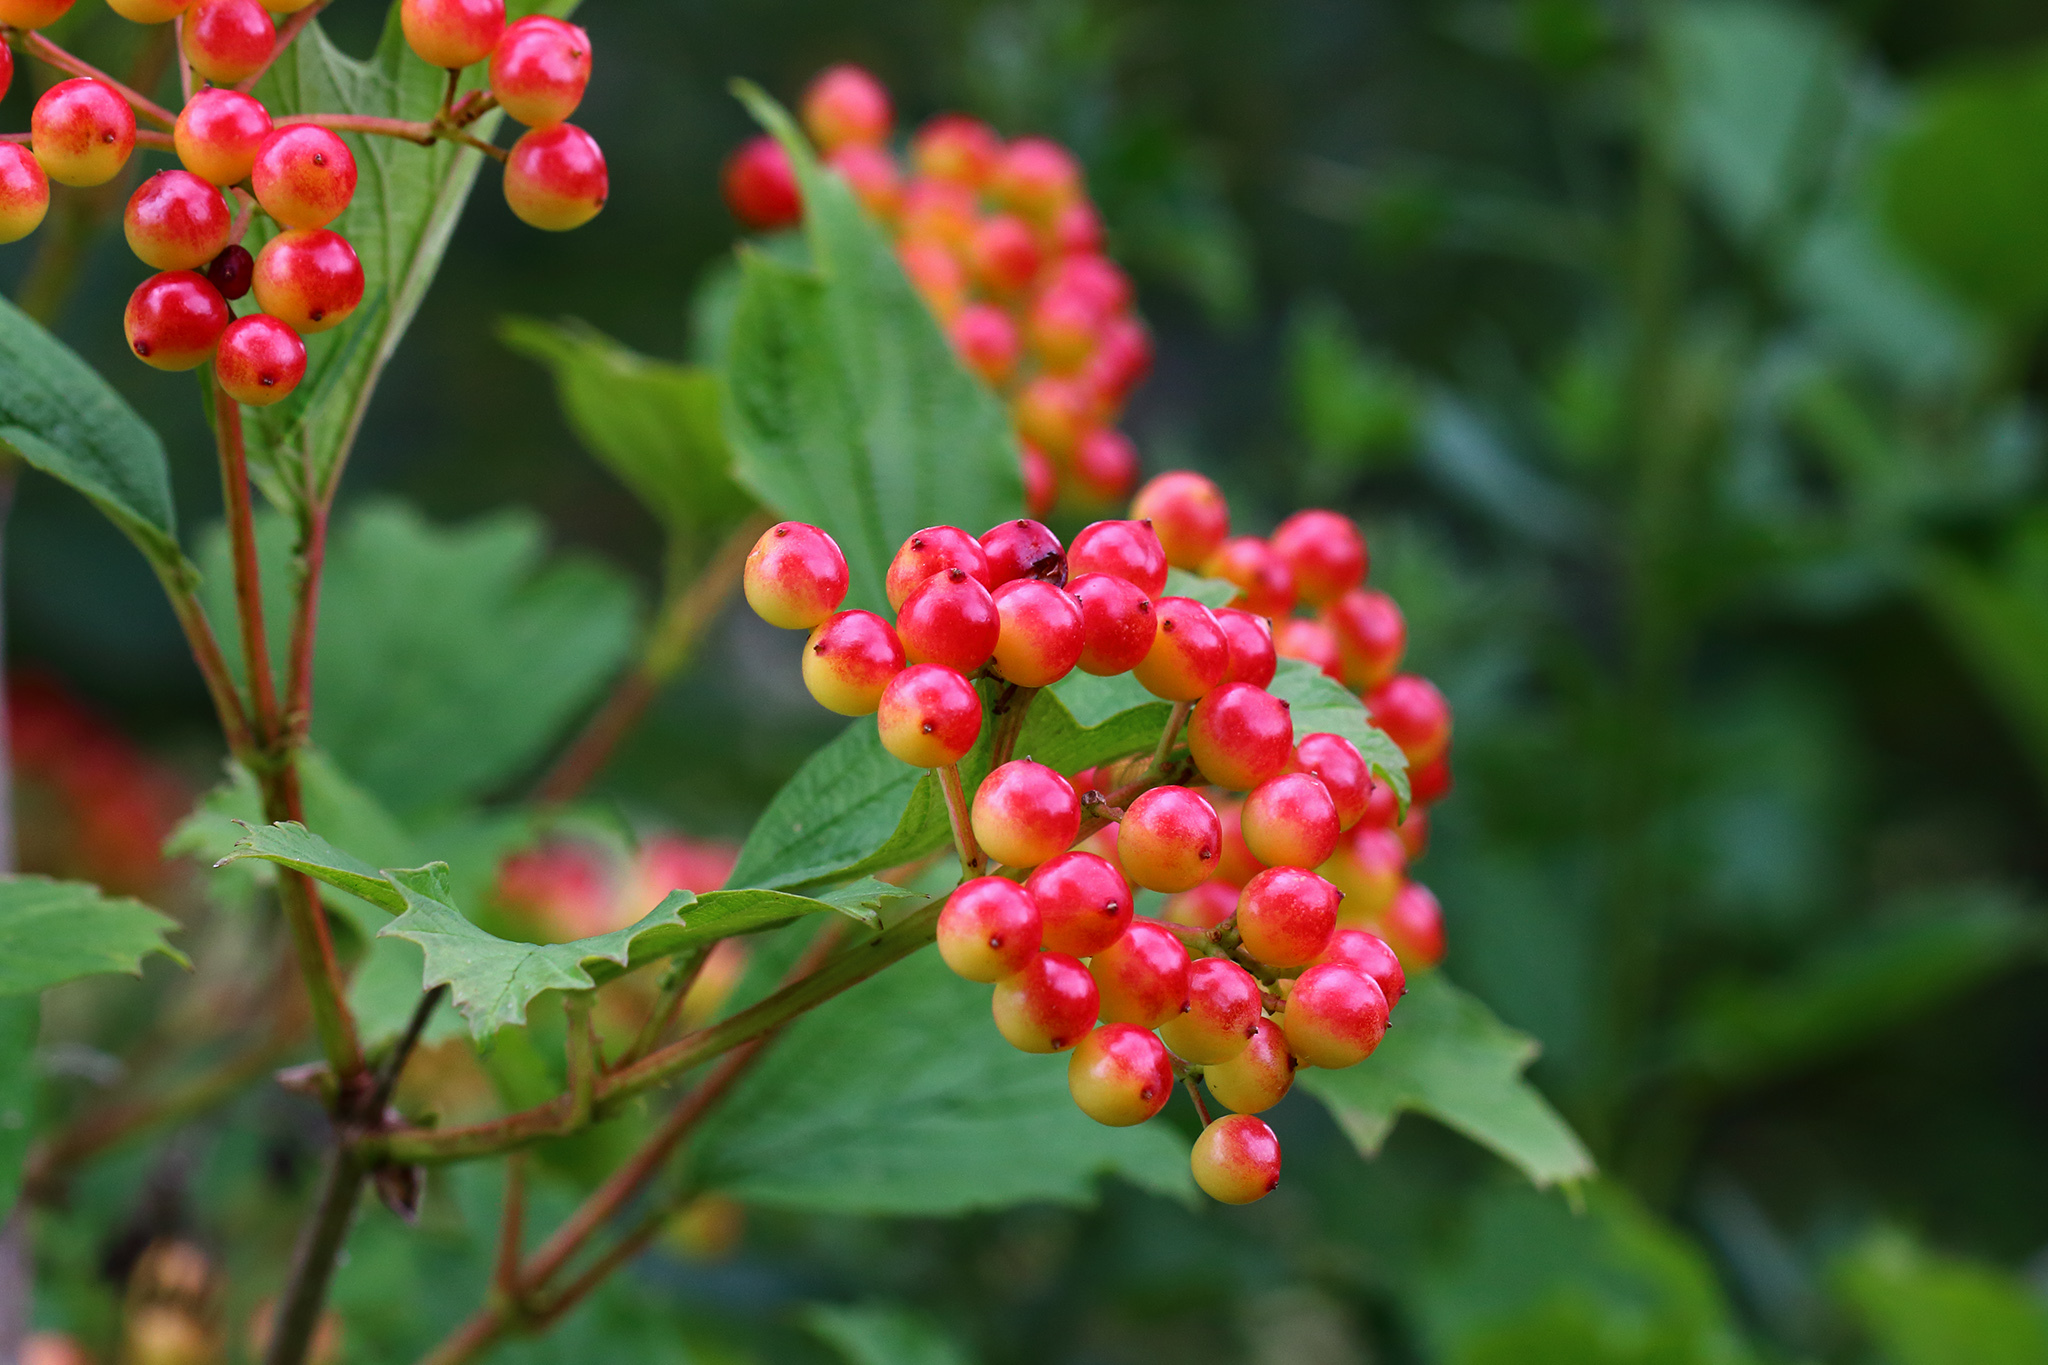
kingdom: Plantae
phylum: Tracheophyta
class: Magnoliopsida
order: Dipsacales
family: Viburnaceae
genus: Viburnum
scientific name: Viburnum opulus
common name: Guelder-rose
